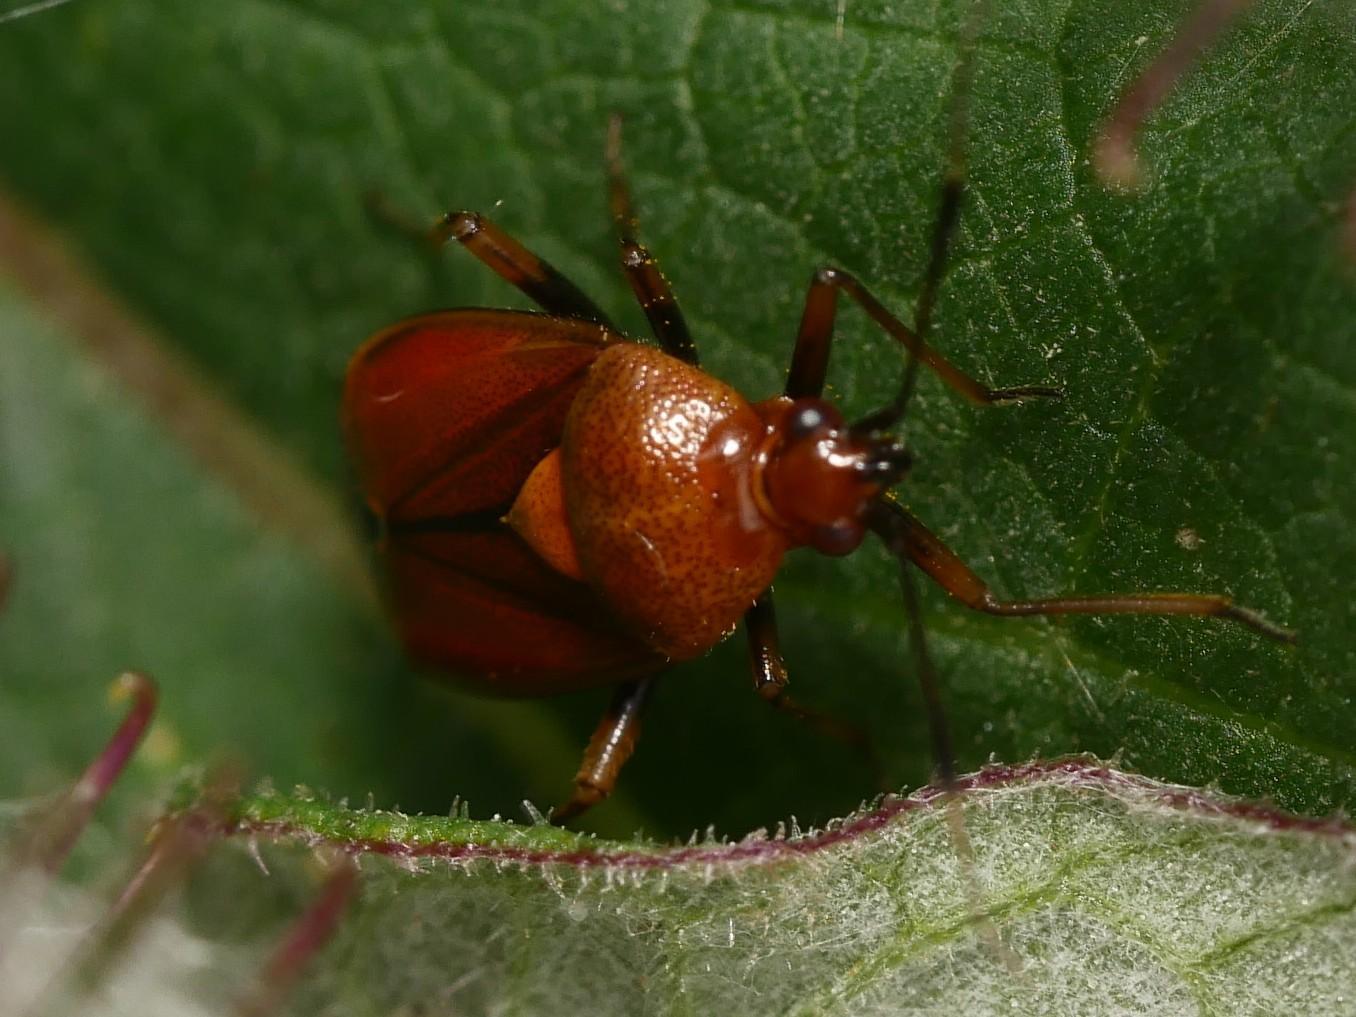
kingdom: Animalia
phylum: Arthropoda
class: Insecta
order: Hemiptera
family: Miridae
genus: Deraeocoris
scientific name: Deraeocoris ruber
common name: Plant bug
